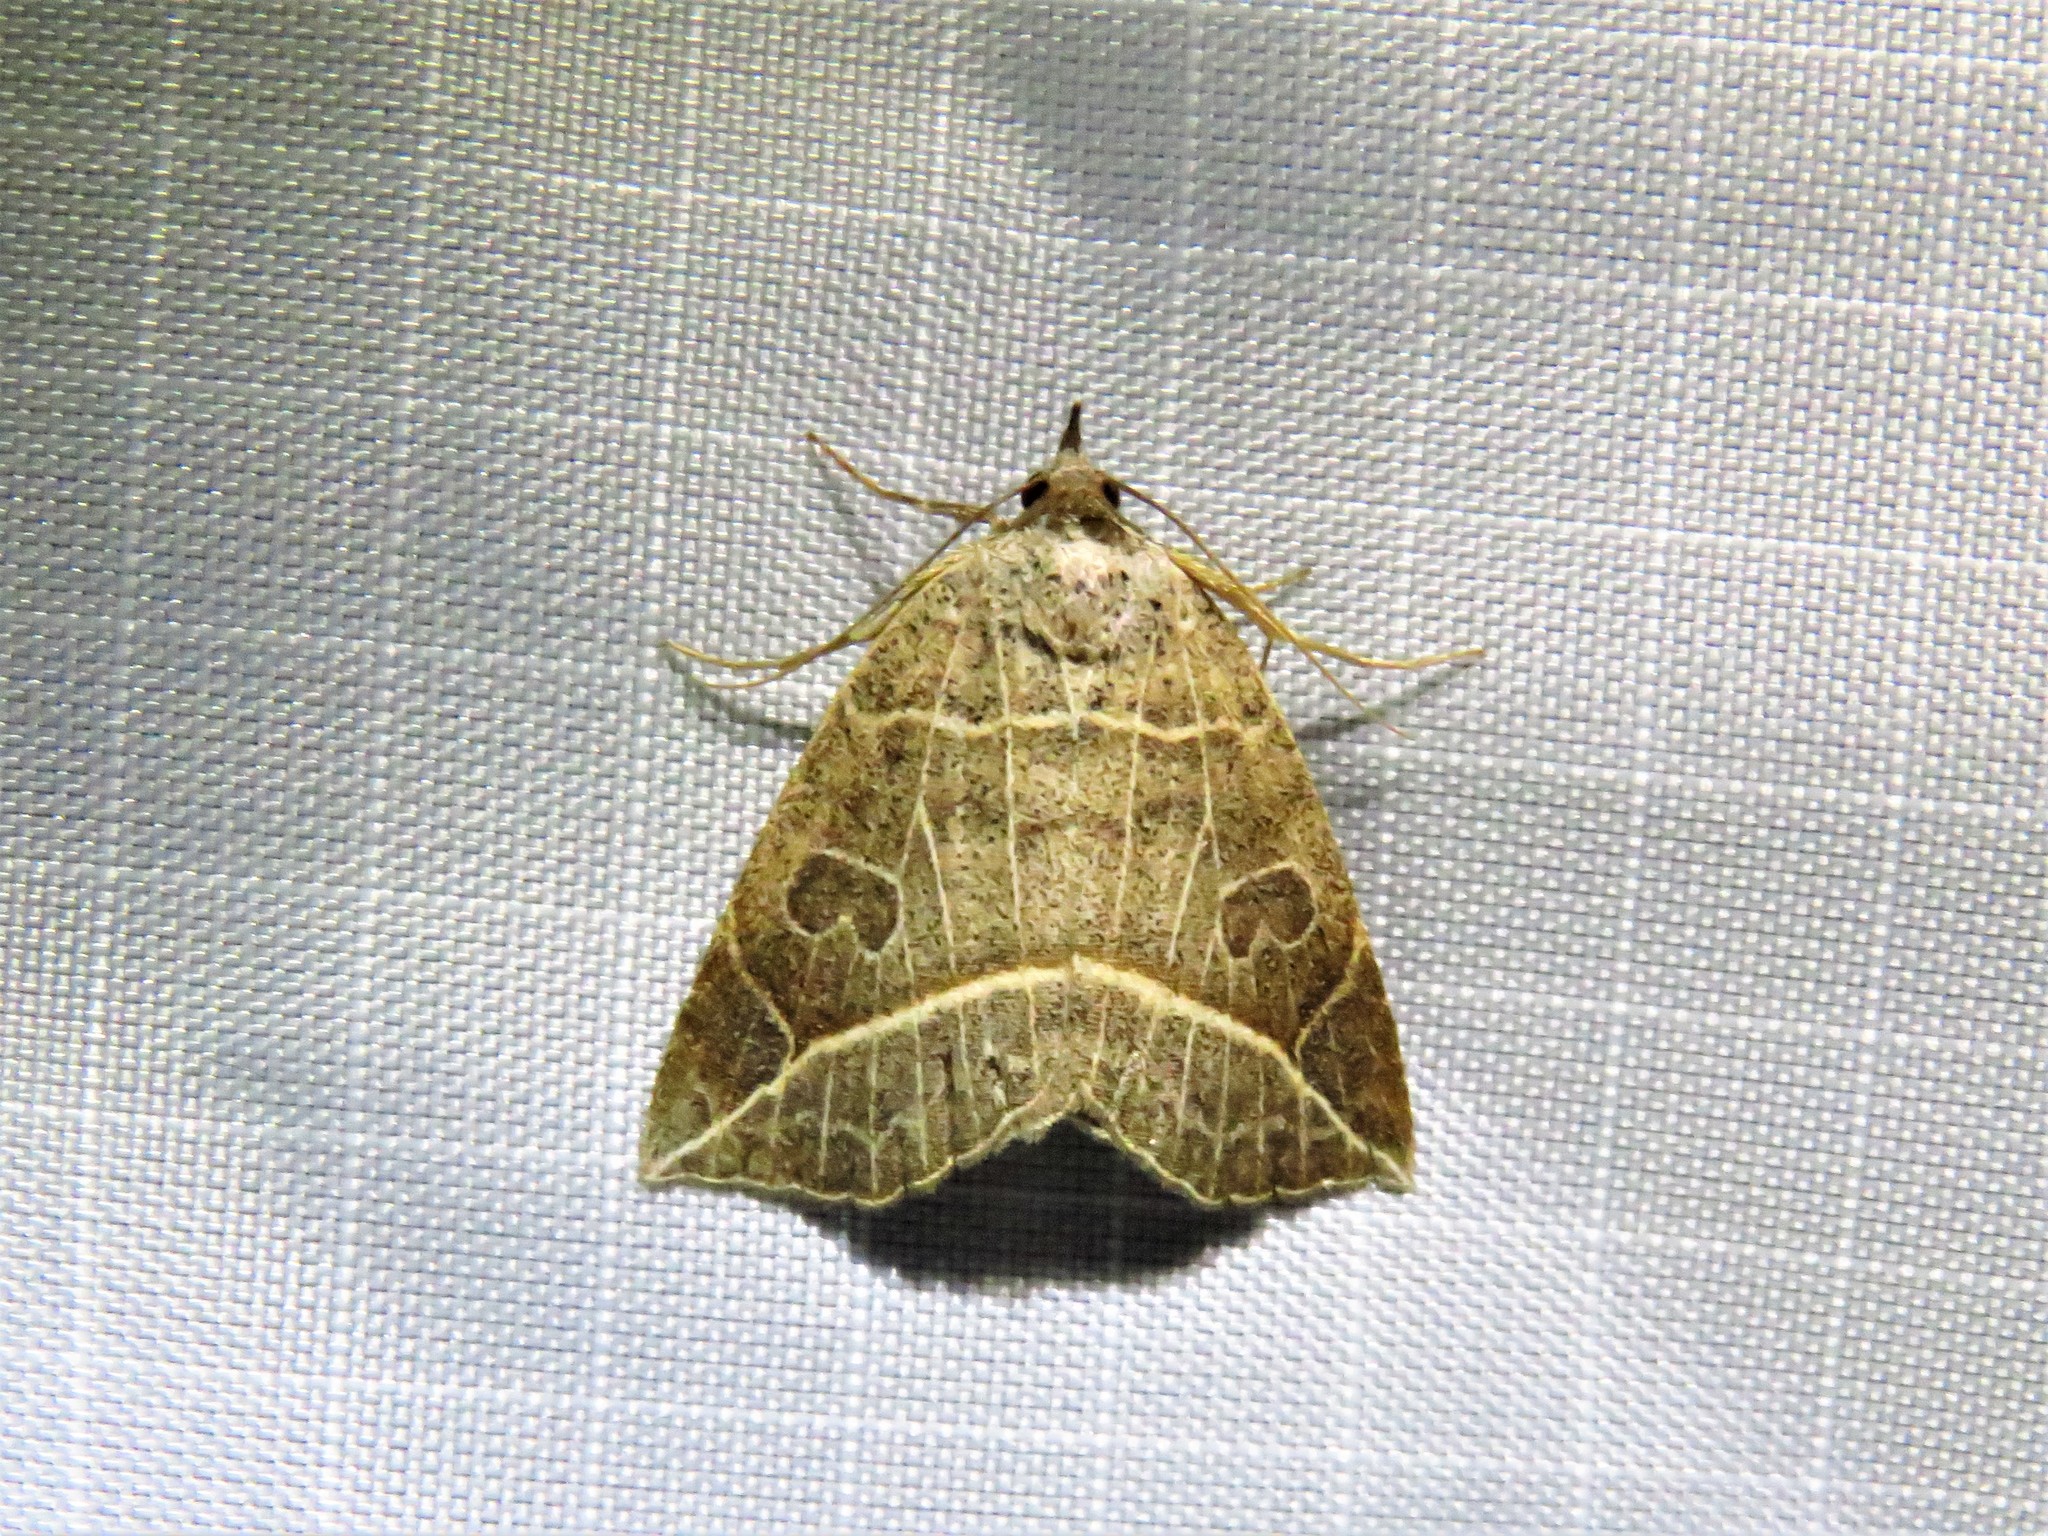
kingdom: Animalia
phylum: Arthropoda
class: Insecta
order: Lepidoptera
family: Erebidae
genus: Isogona
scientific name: Isogona tenuis
